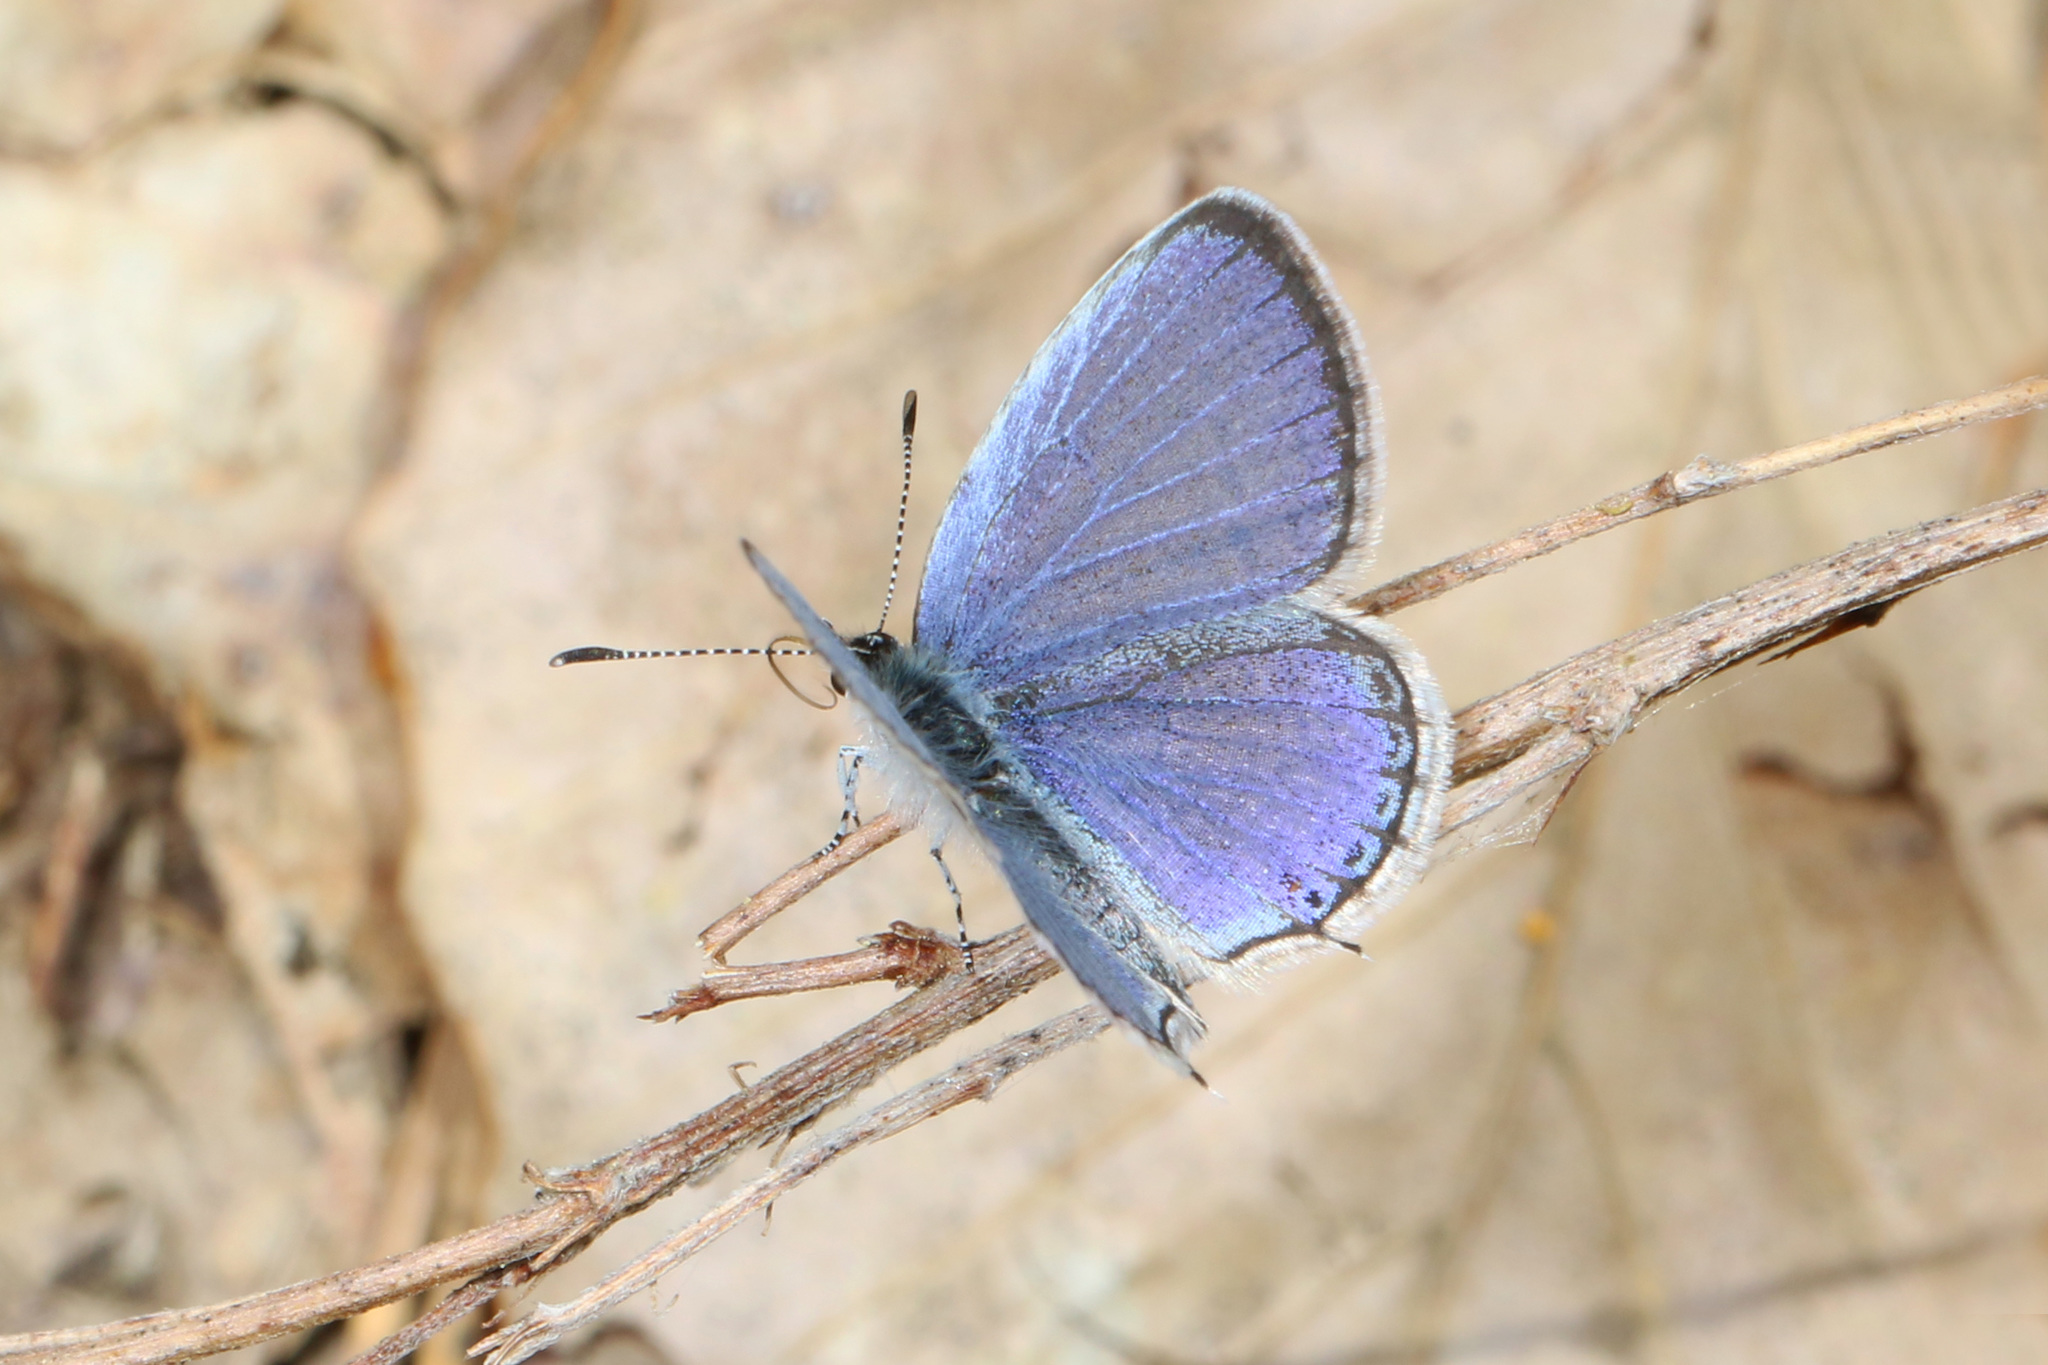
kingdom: Animalia
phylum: Arthropoda
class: Insecta
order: Lepidoptera
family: Lycaenidae
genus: Elkalyce
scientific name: Elkalyce comyntas
